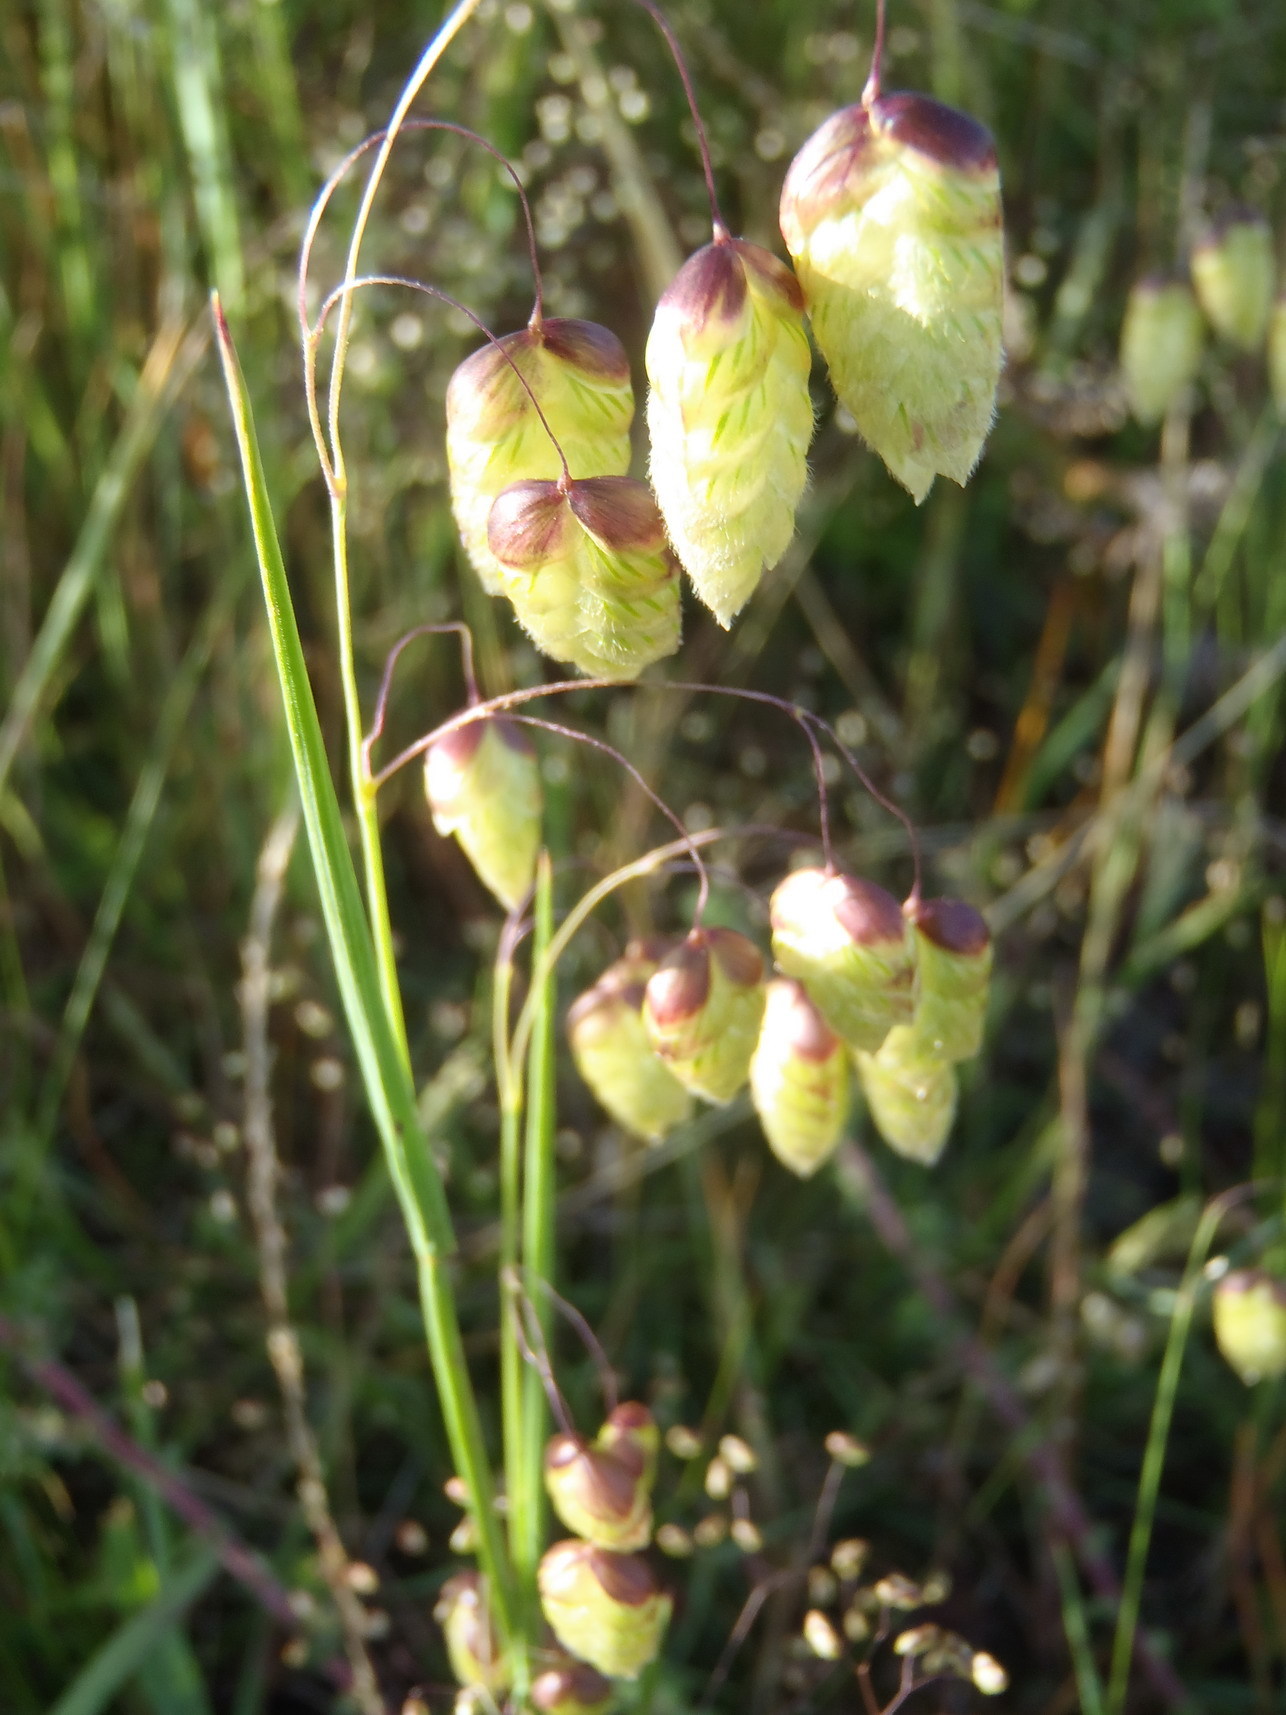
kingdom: Plantae
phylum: Tracheophyta
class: Liliopsida
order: Poales
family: Poaceae
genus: Briza
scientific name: Briza maxima
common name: Big quakinggrass
